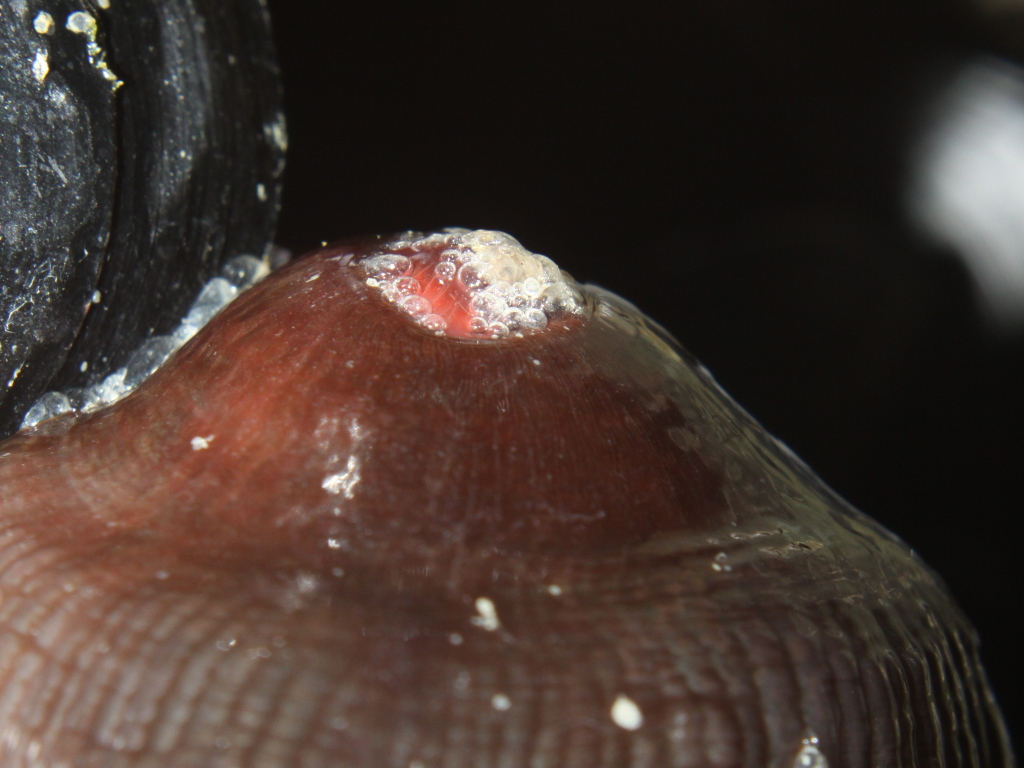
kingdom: Animalia
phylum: Cnidaria
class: Anthozoa
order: Actiniaria
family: Actiniidae
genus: Actinia
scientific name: Actinia tenebrosa
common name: Waratah anemone
